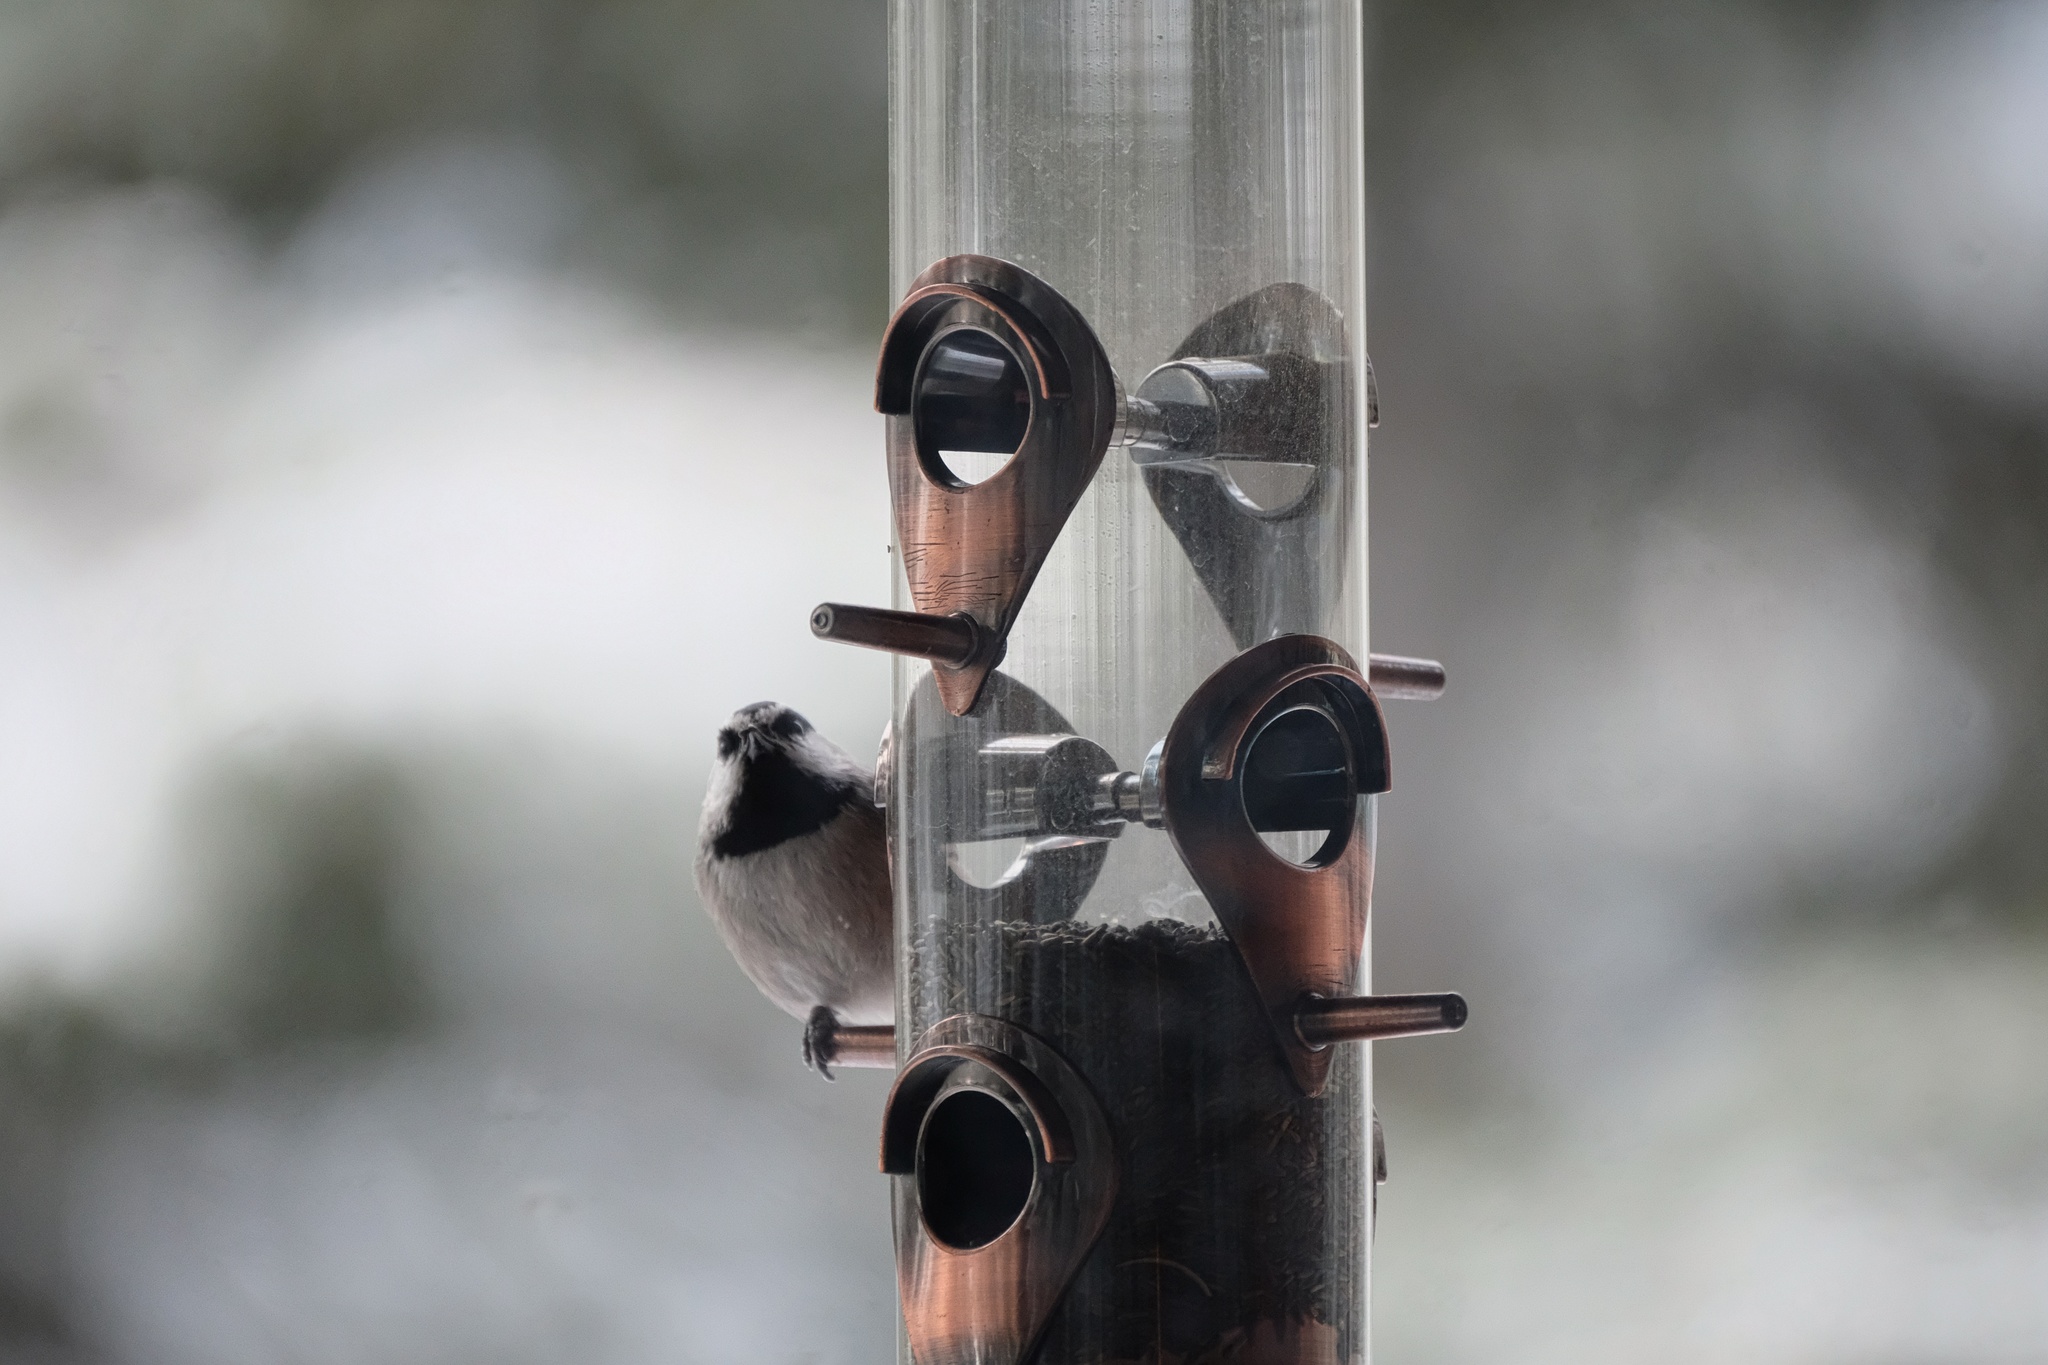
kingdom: Animalia
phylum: Chordata
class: Aves
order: Passeriformes
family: Paridae
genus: Poecile
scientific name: Poecile gambeli
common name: Mountain chickadee
